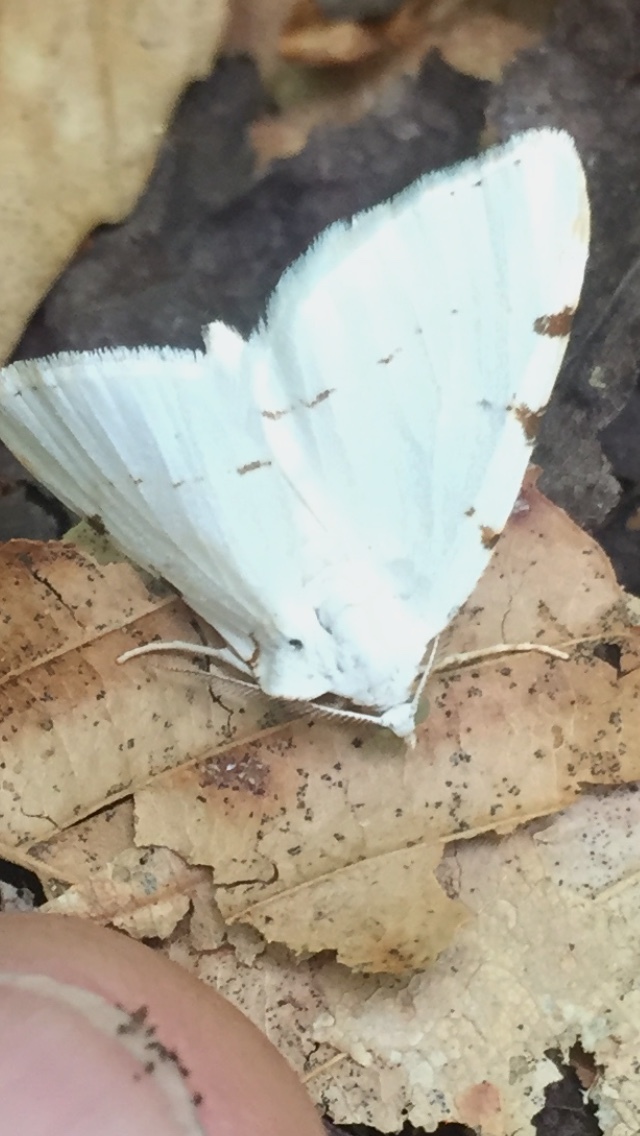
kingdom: Animalia
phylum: Arthropoda
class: Insecta
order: Lepidoptera
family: Geometridae
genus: Macaria
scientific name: Macaria pustularia
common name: Lesser maple spanworm moth
